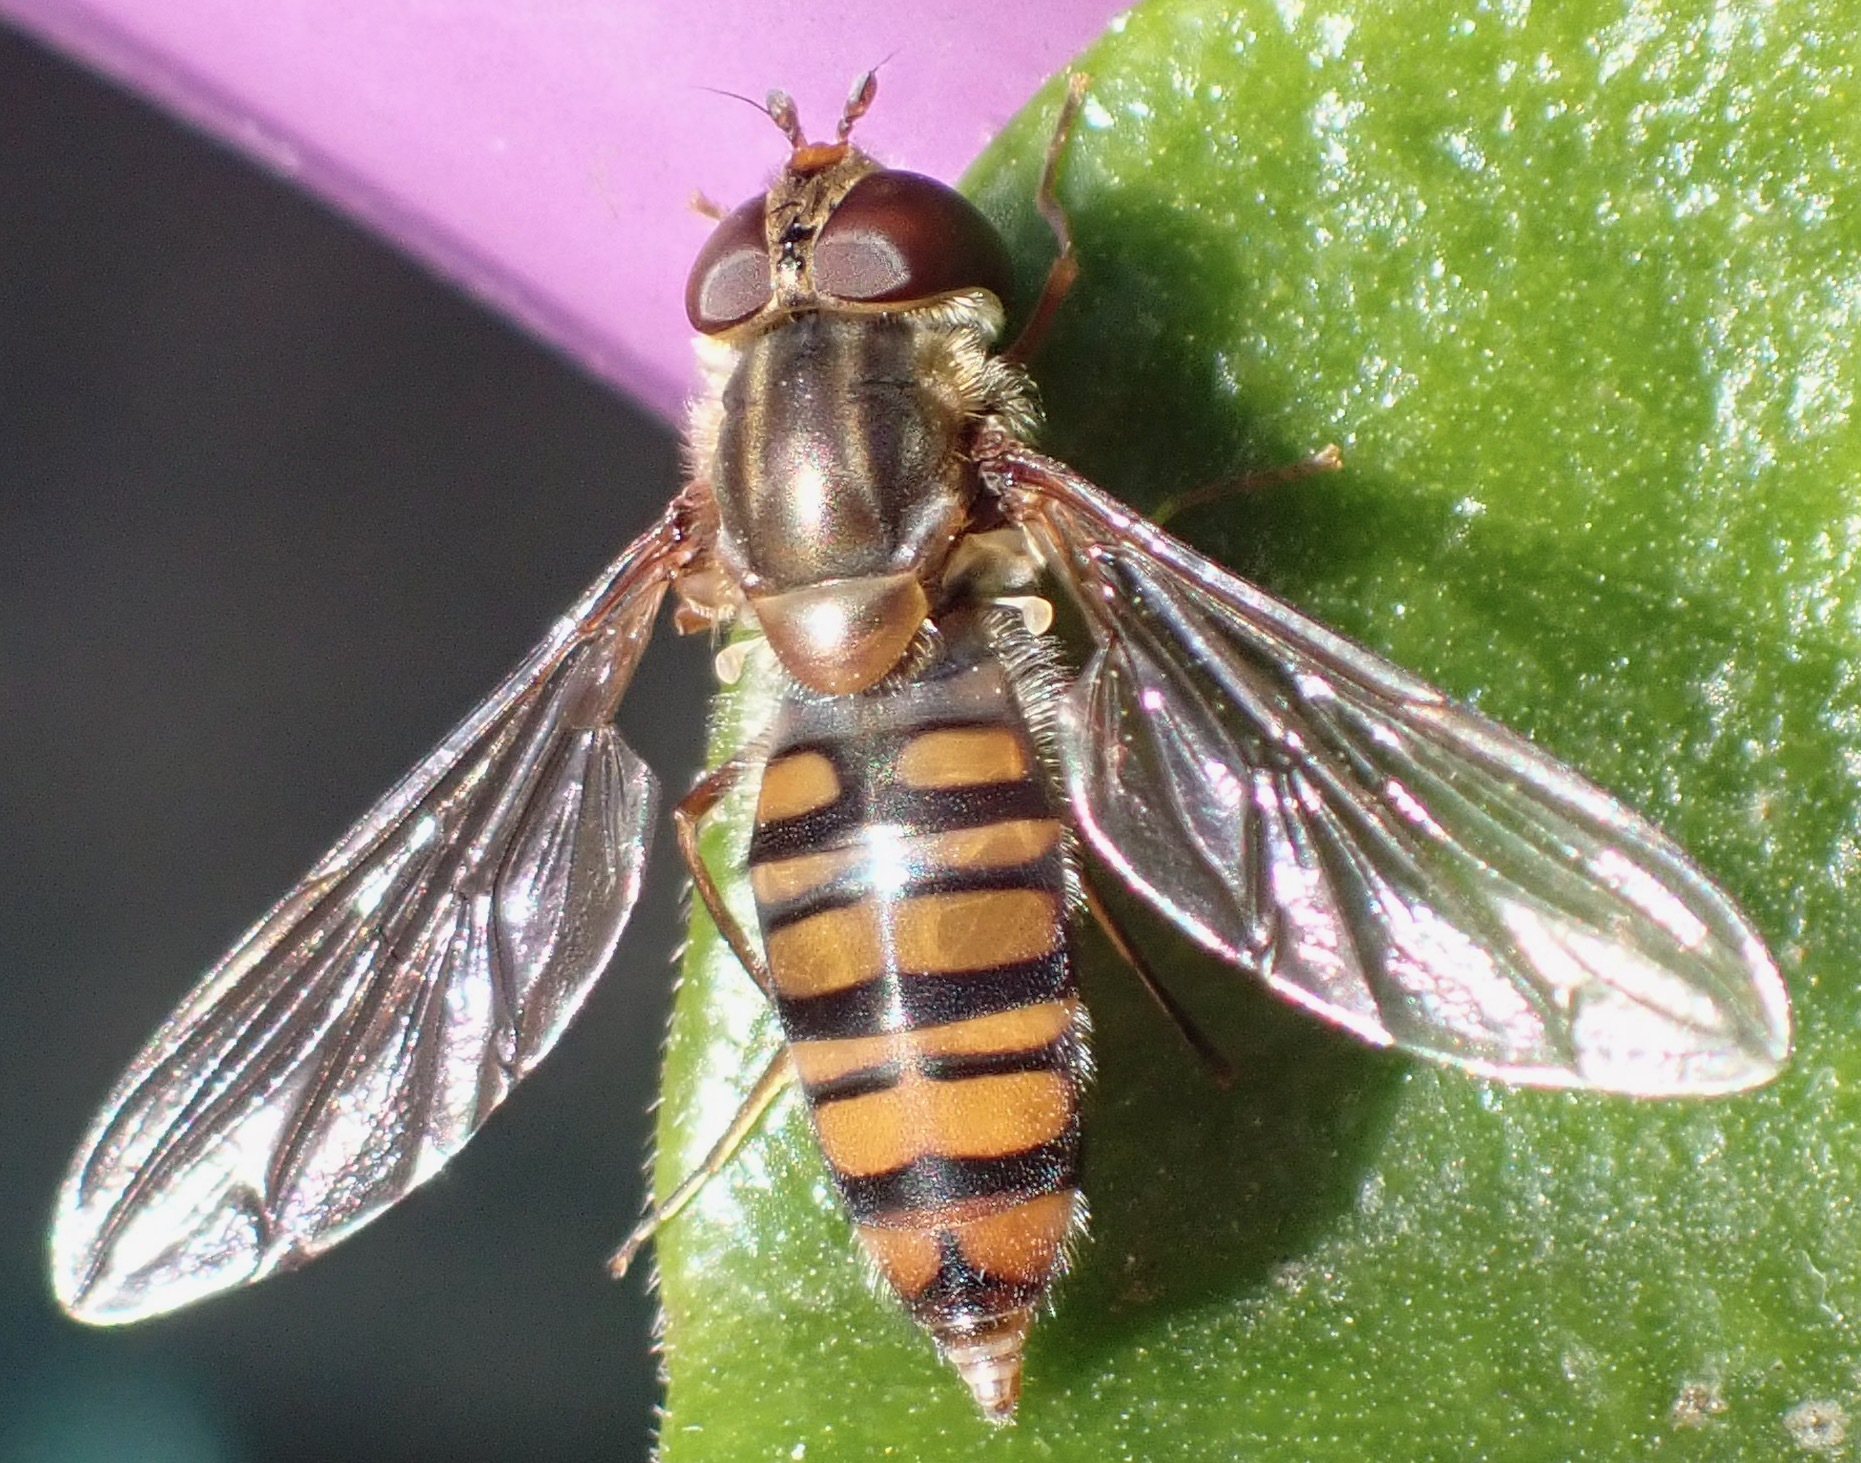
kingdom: Animalia
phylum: Arthropoda
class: Insecta
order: Diptera
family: Syrphidae
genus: Episyrphus
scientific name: Episyrphus balteatus
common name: Marmalade hoverfly
